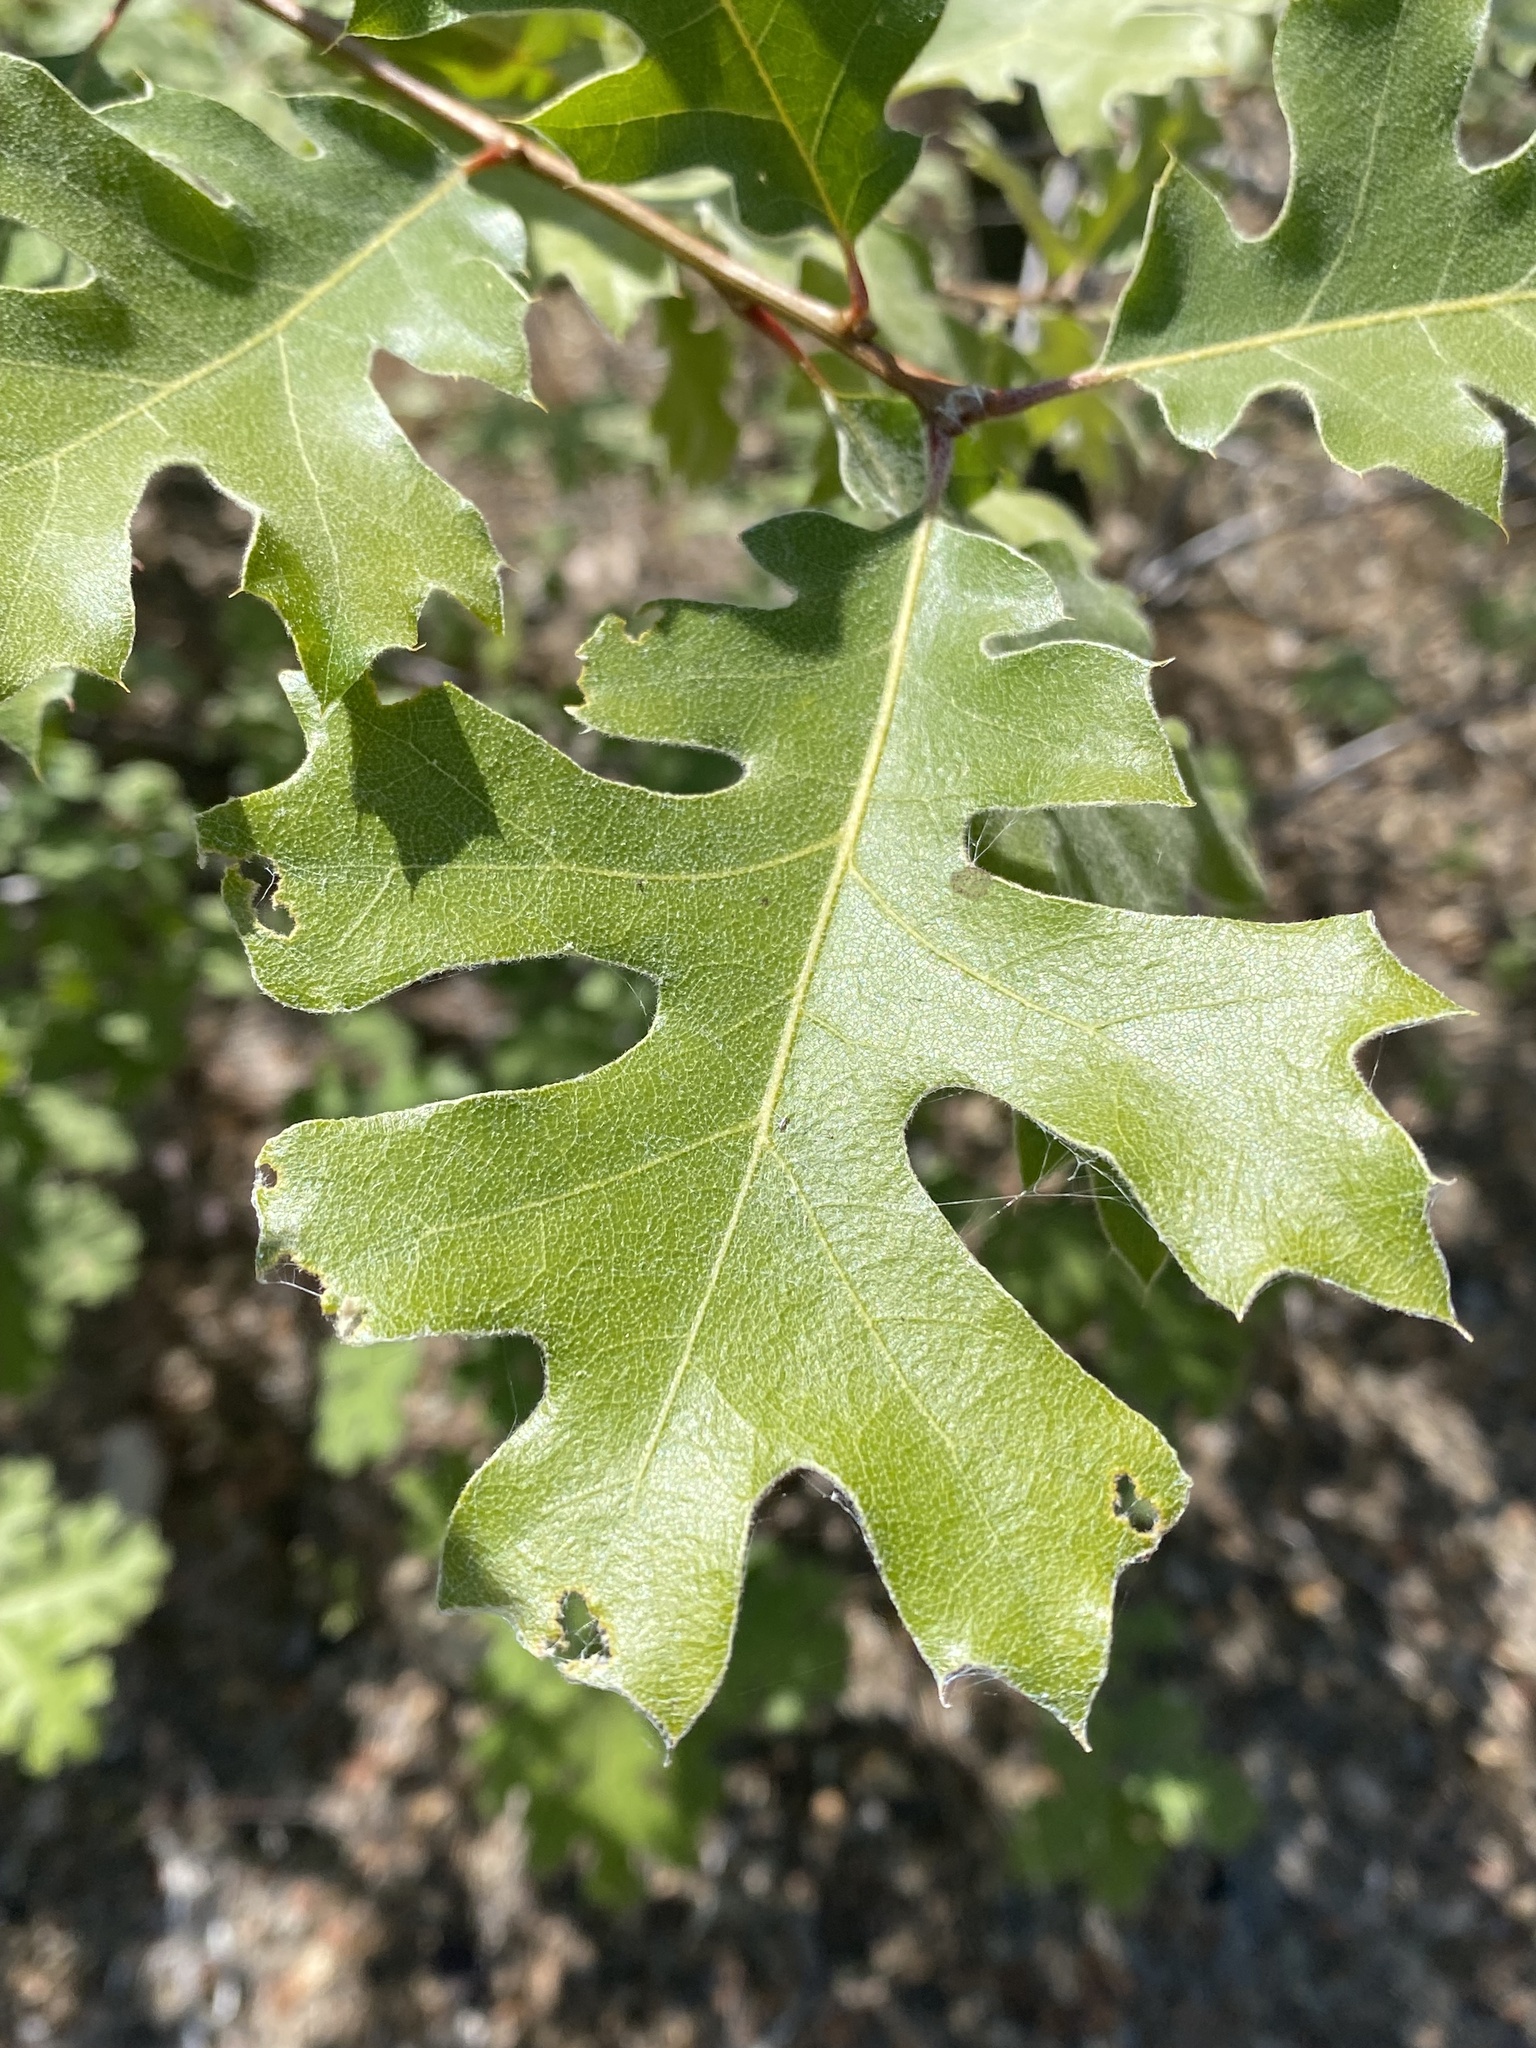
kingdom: Plantae
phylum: Tracheophyta
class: Magnoliopsida
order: Fagales
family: Fagaceae
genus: Quercus
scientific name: Quercus kelloggii
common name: California black oak
